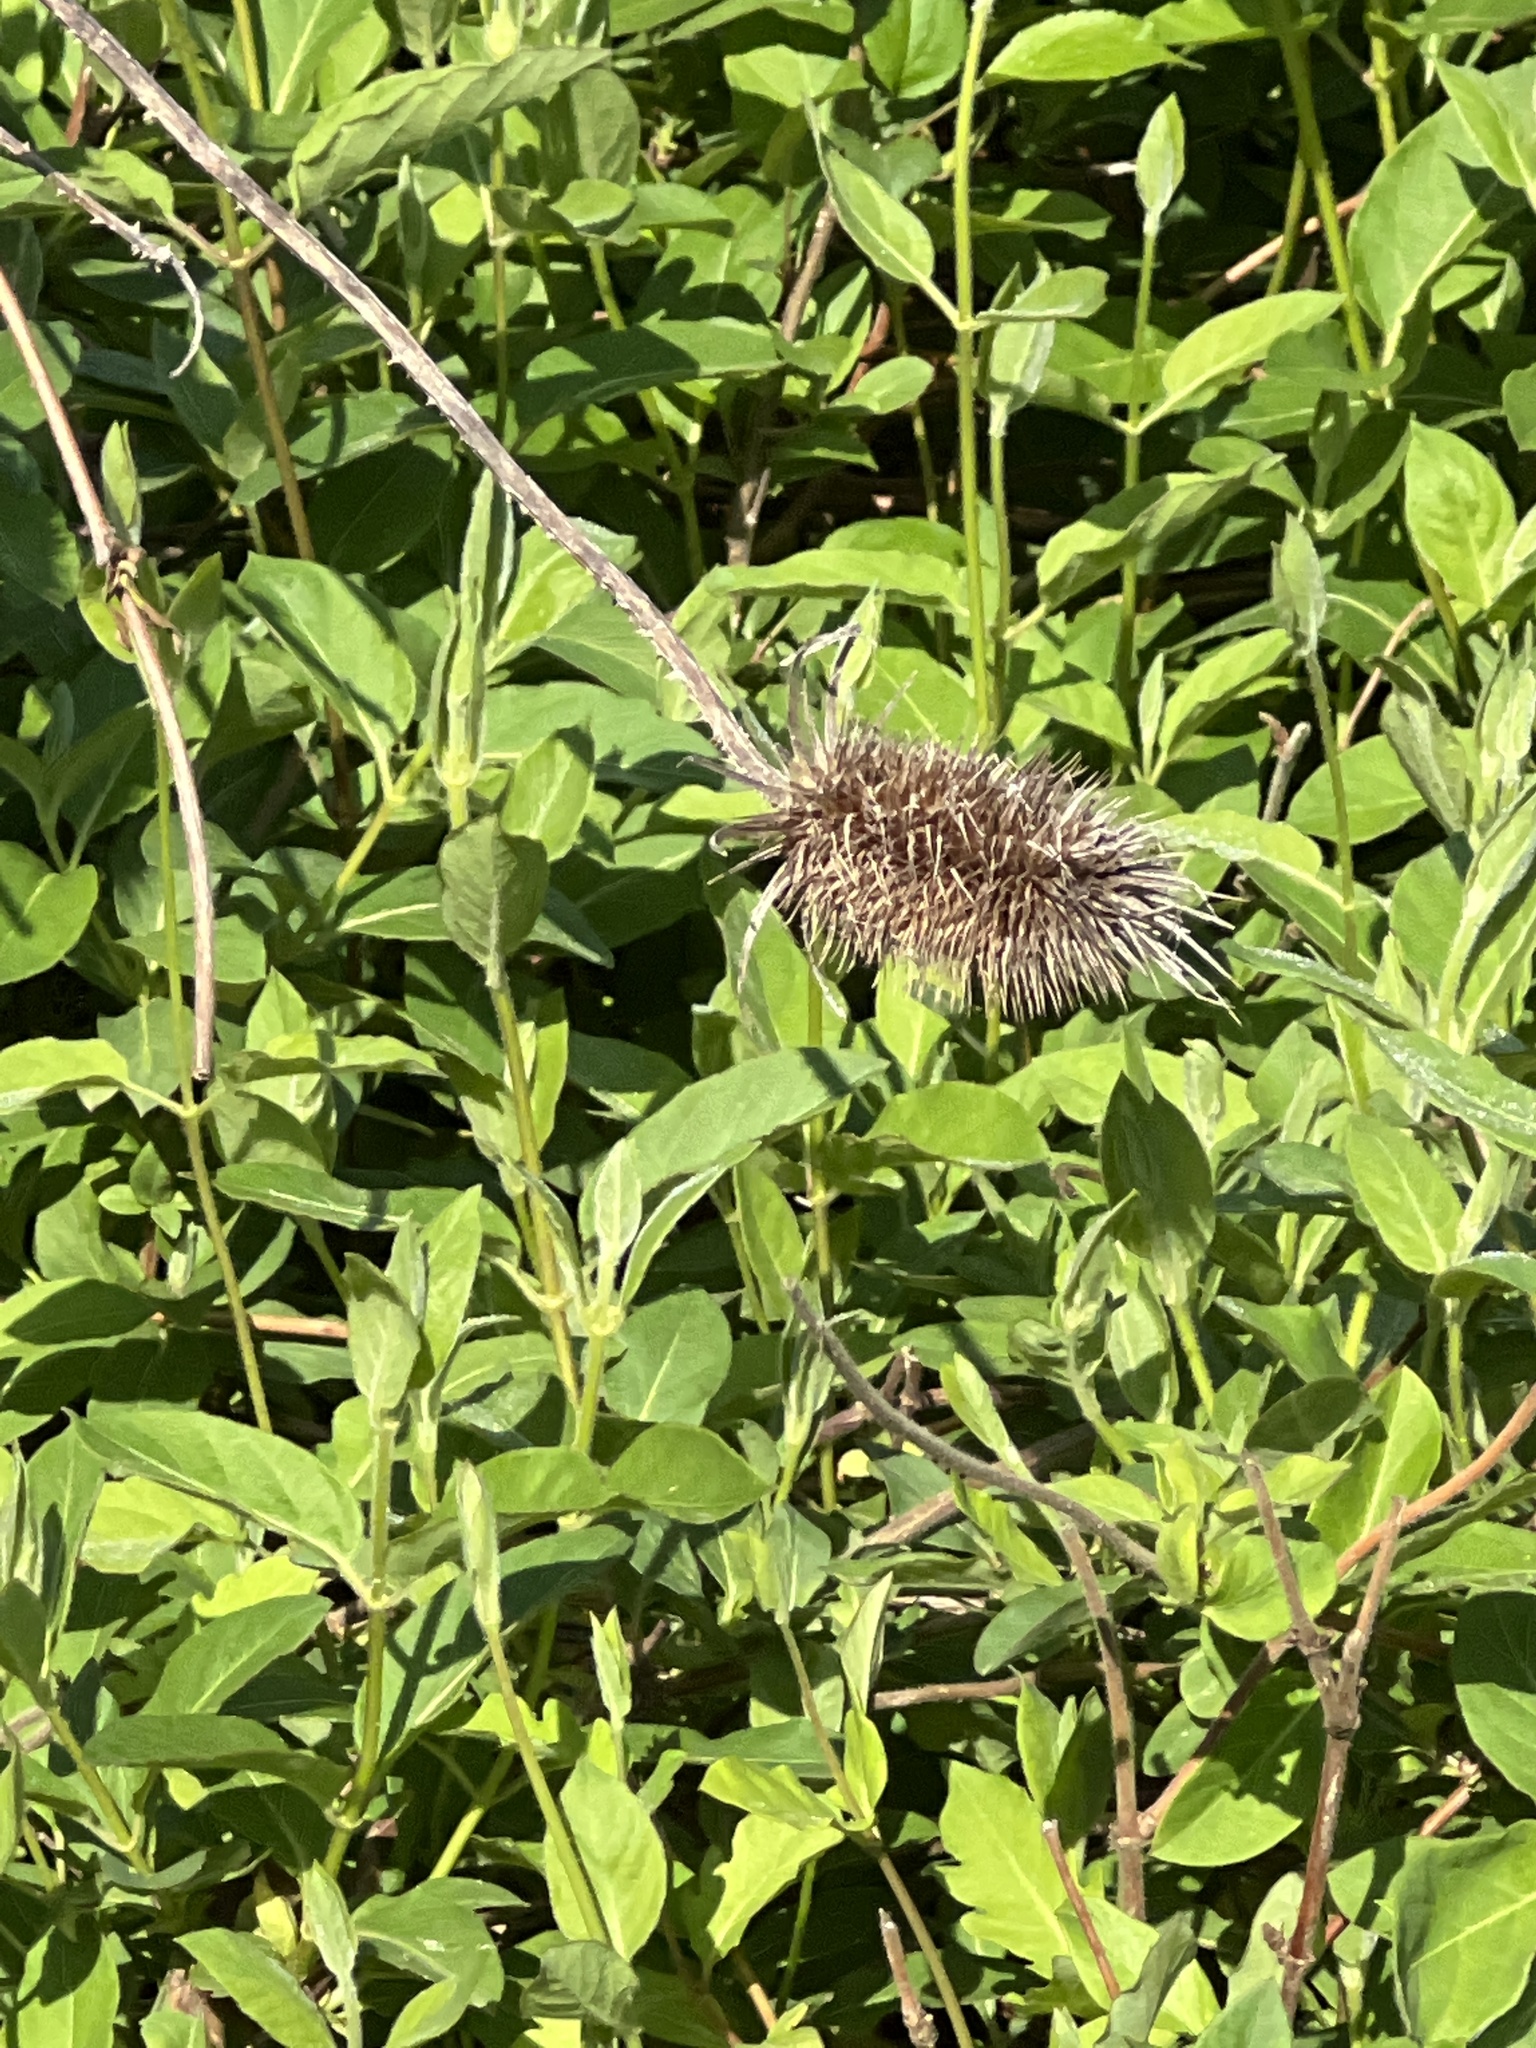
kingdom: Plantae
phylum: Tracheophyta
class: Magnoliopsida
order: Dipsacales
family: Caprifoliaceae
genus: Dipsacus
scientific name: Dipsacus fullonum
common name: Teasel
